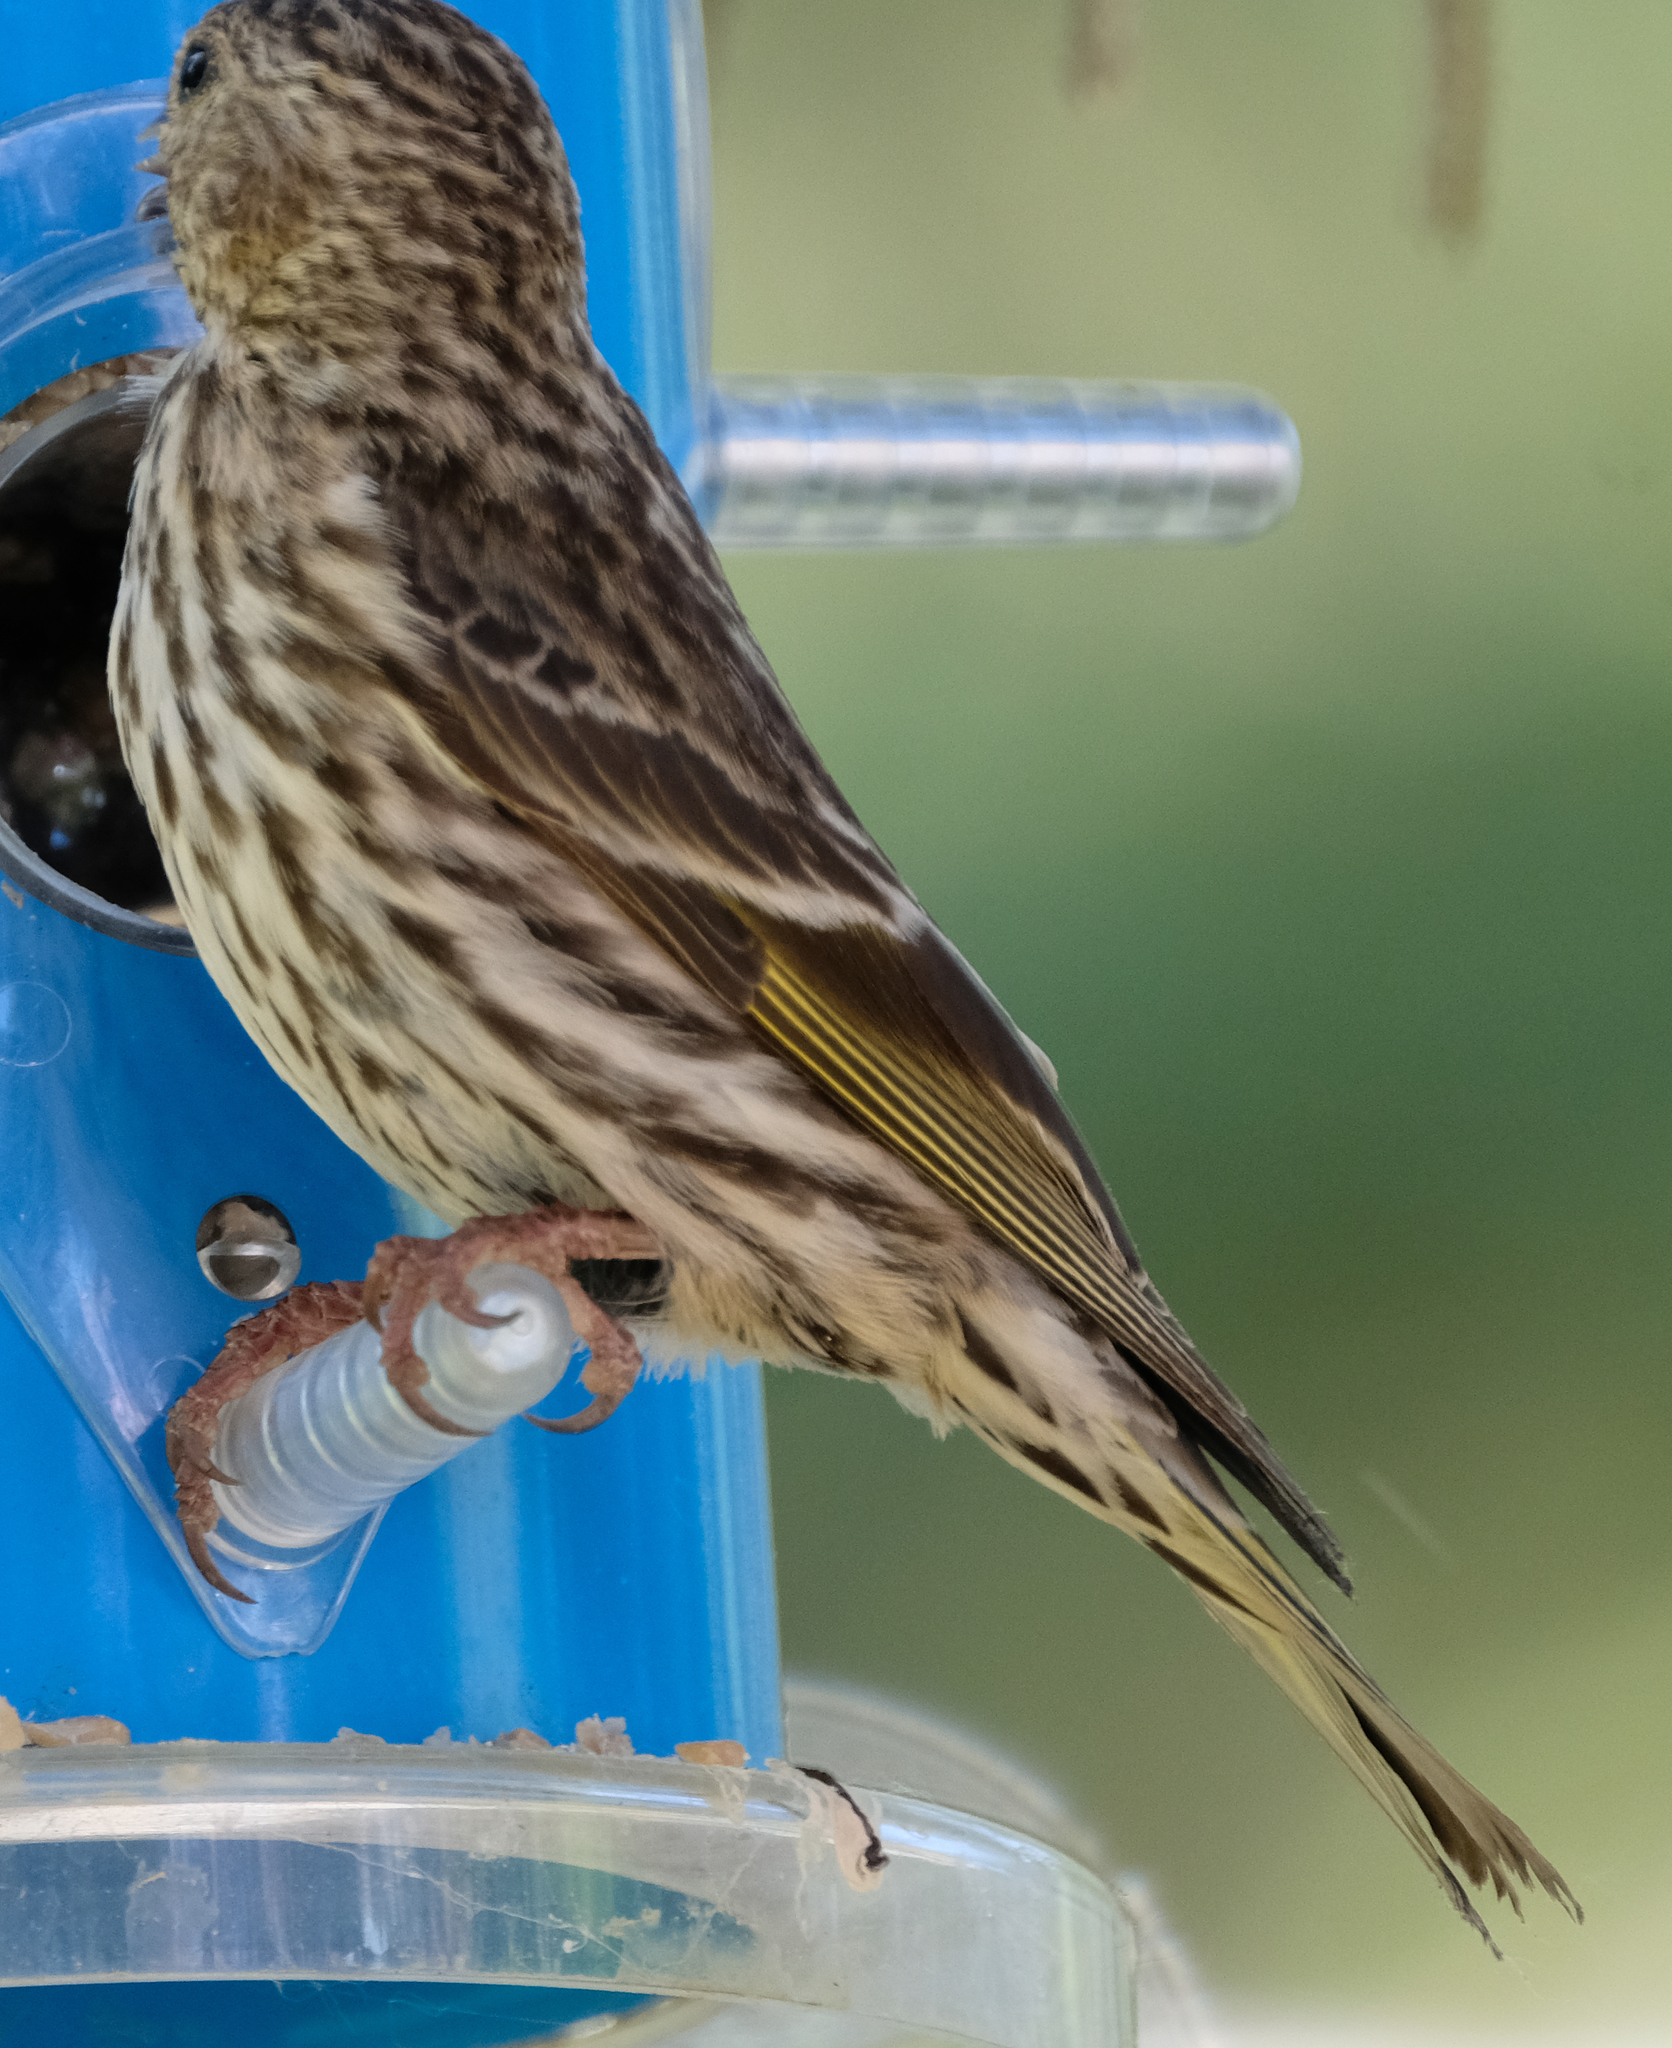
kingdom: Animalia
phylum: Chordata
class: Aves
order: Passeriformes
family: Fringillidae
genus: Spinus
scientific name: Spinus pinus
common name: Pine siskin
